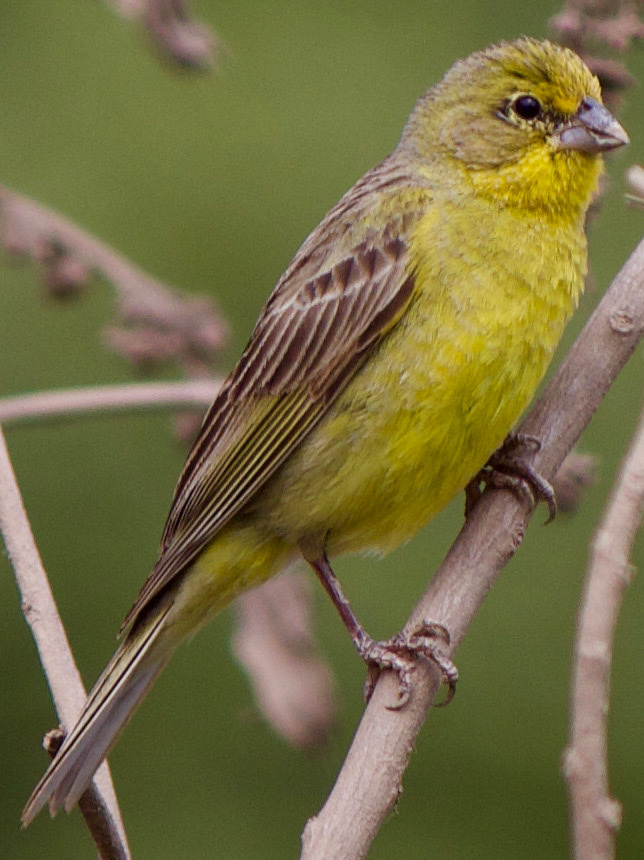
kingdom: Animalia
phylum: Chordata
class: Aves
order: Passeriformes
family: Thraupidae
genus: Sicalis
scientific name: Sicalis luteola
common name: Grassland yellow-finch
